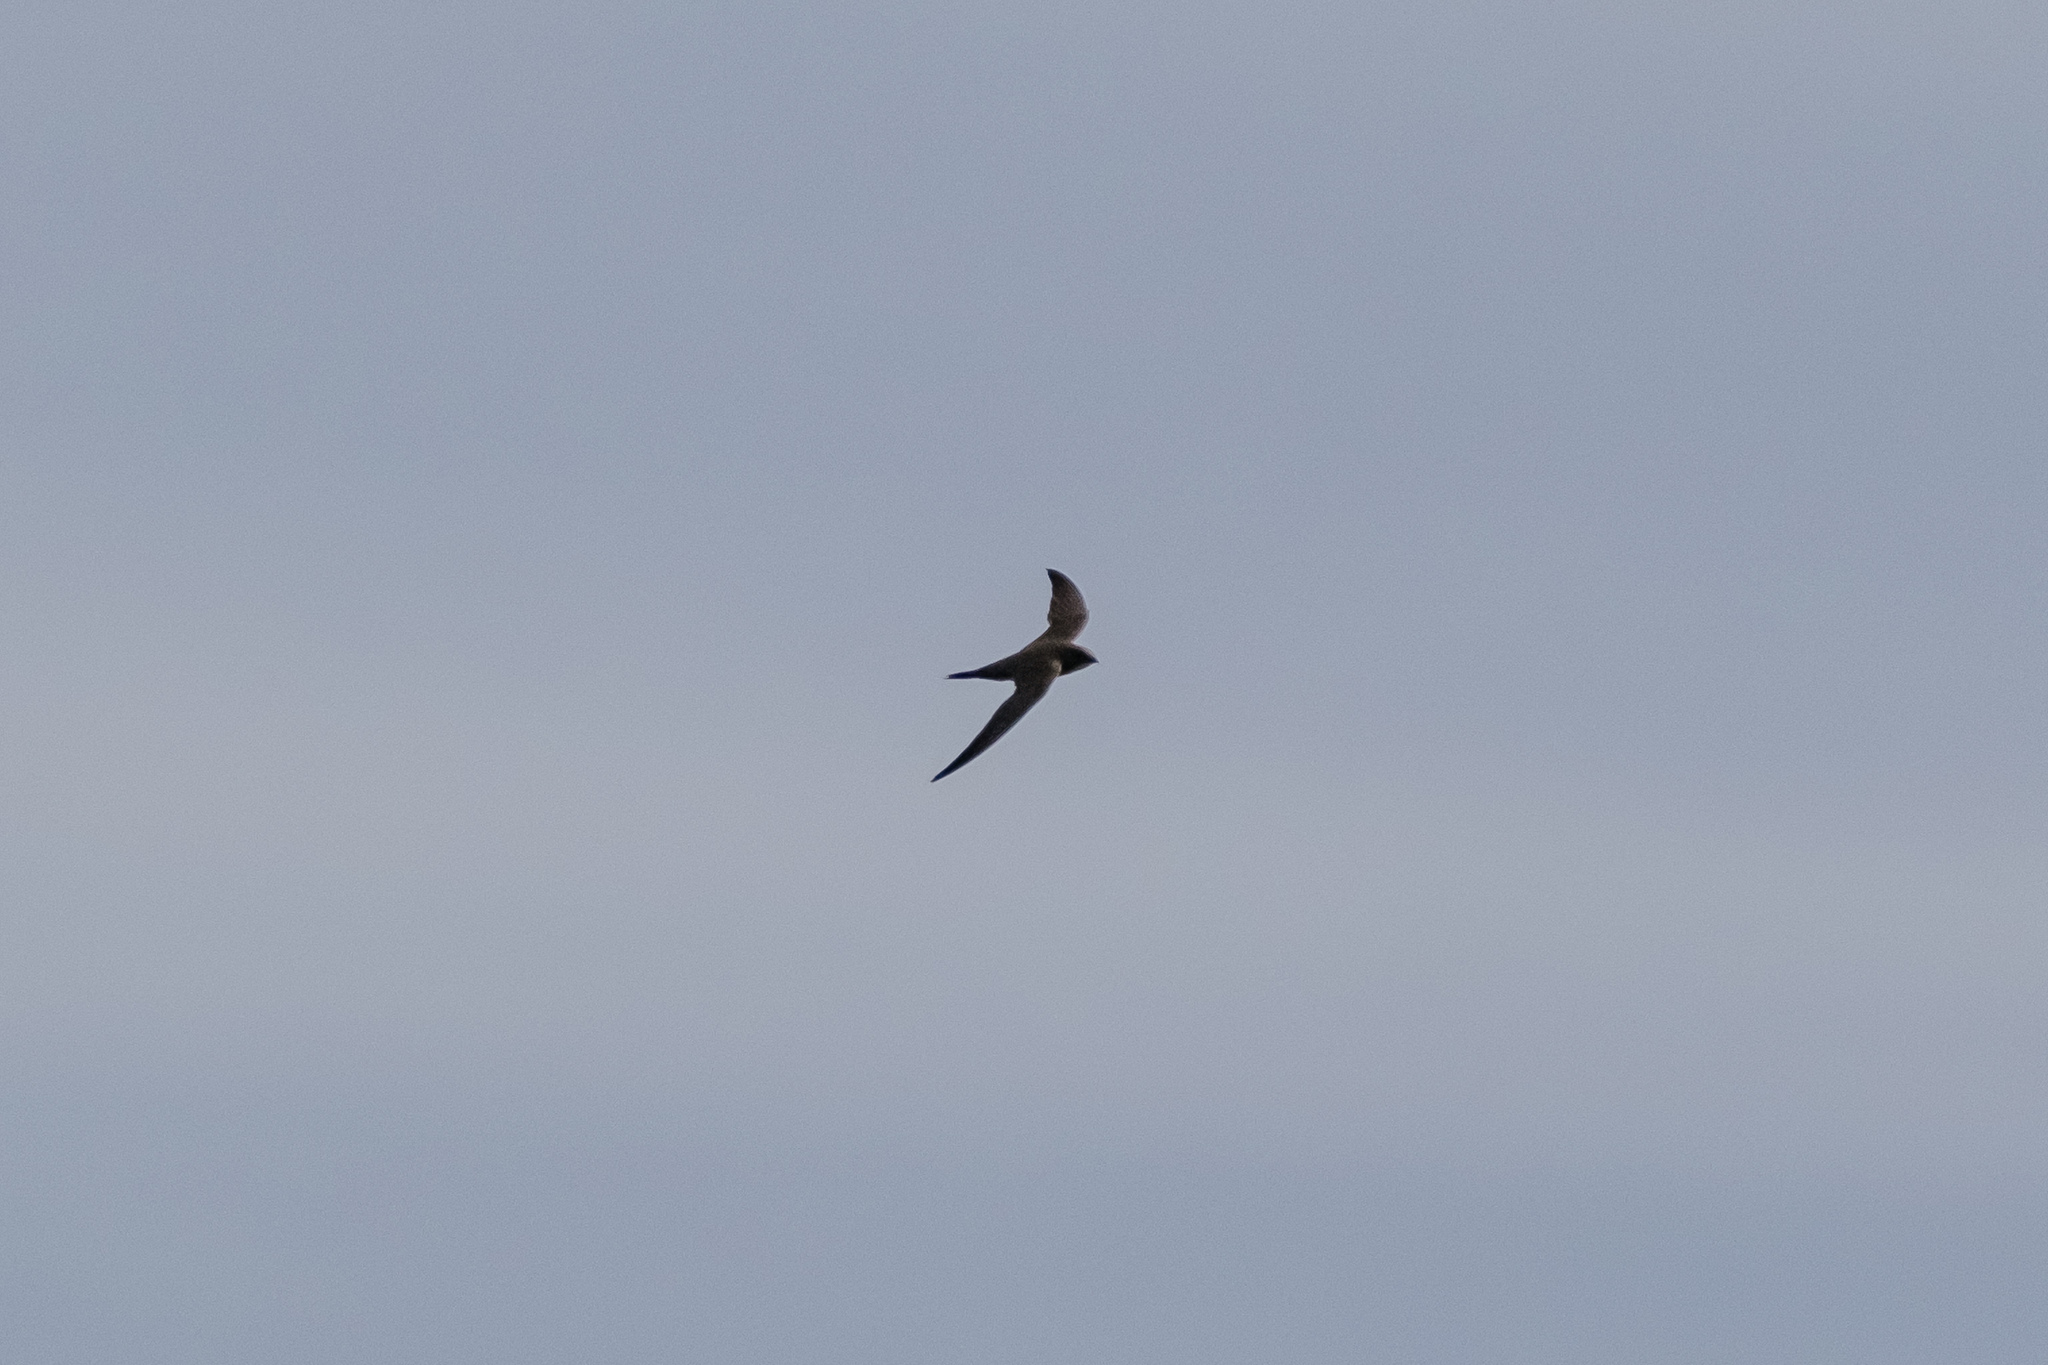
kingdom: Animalia
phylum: Chordata
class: Aves
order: Apodiformes
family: Apodidae
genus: Tachymarptis
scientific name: Tachymarptis melba
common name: Alpine swift
